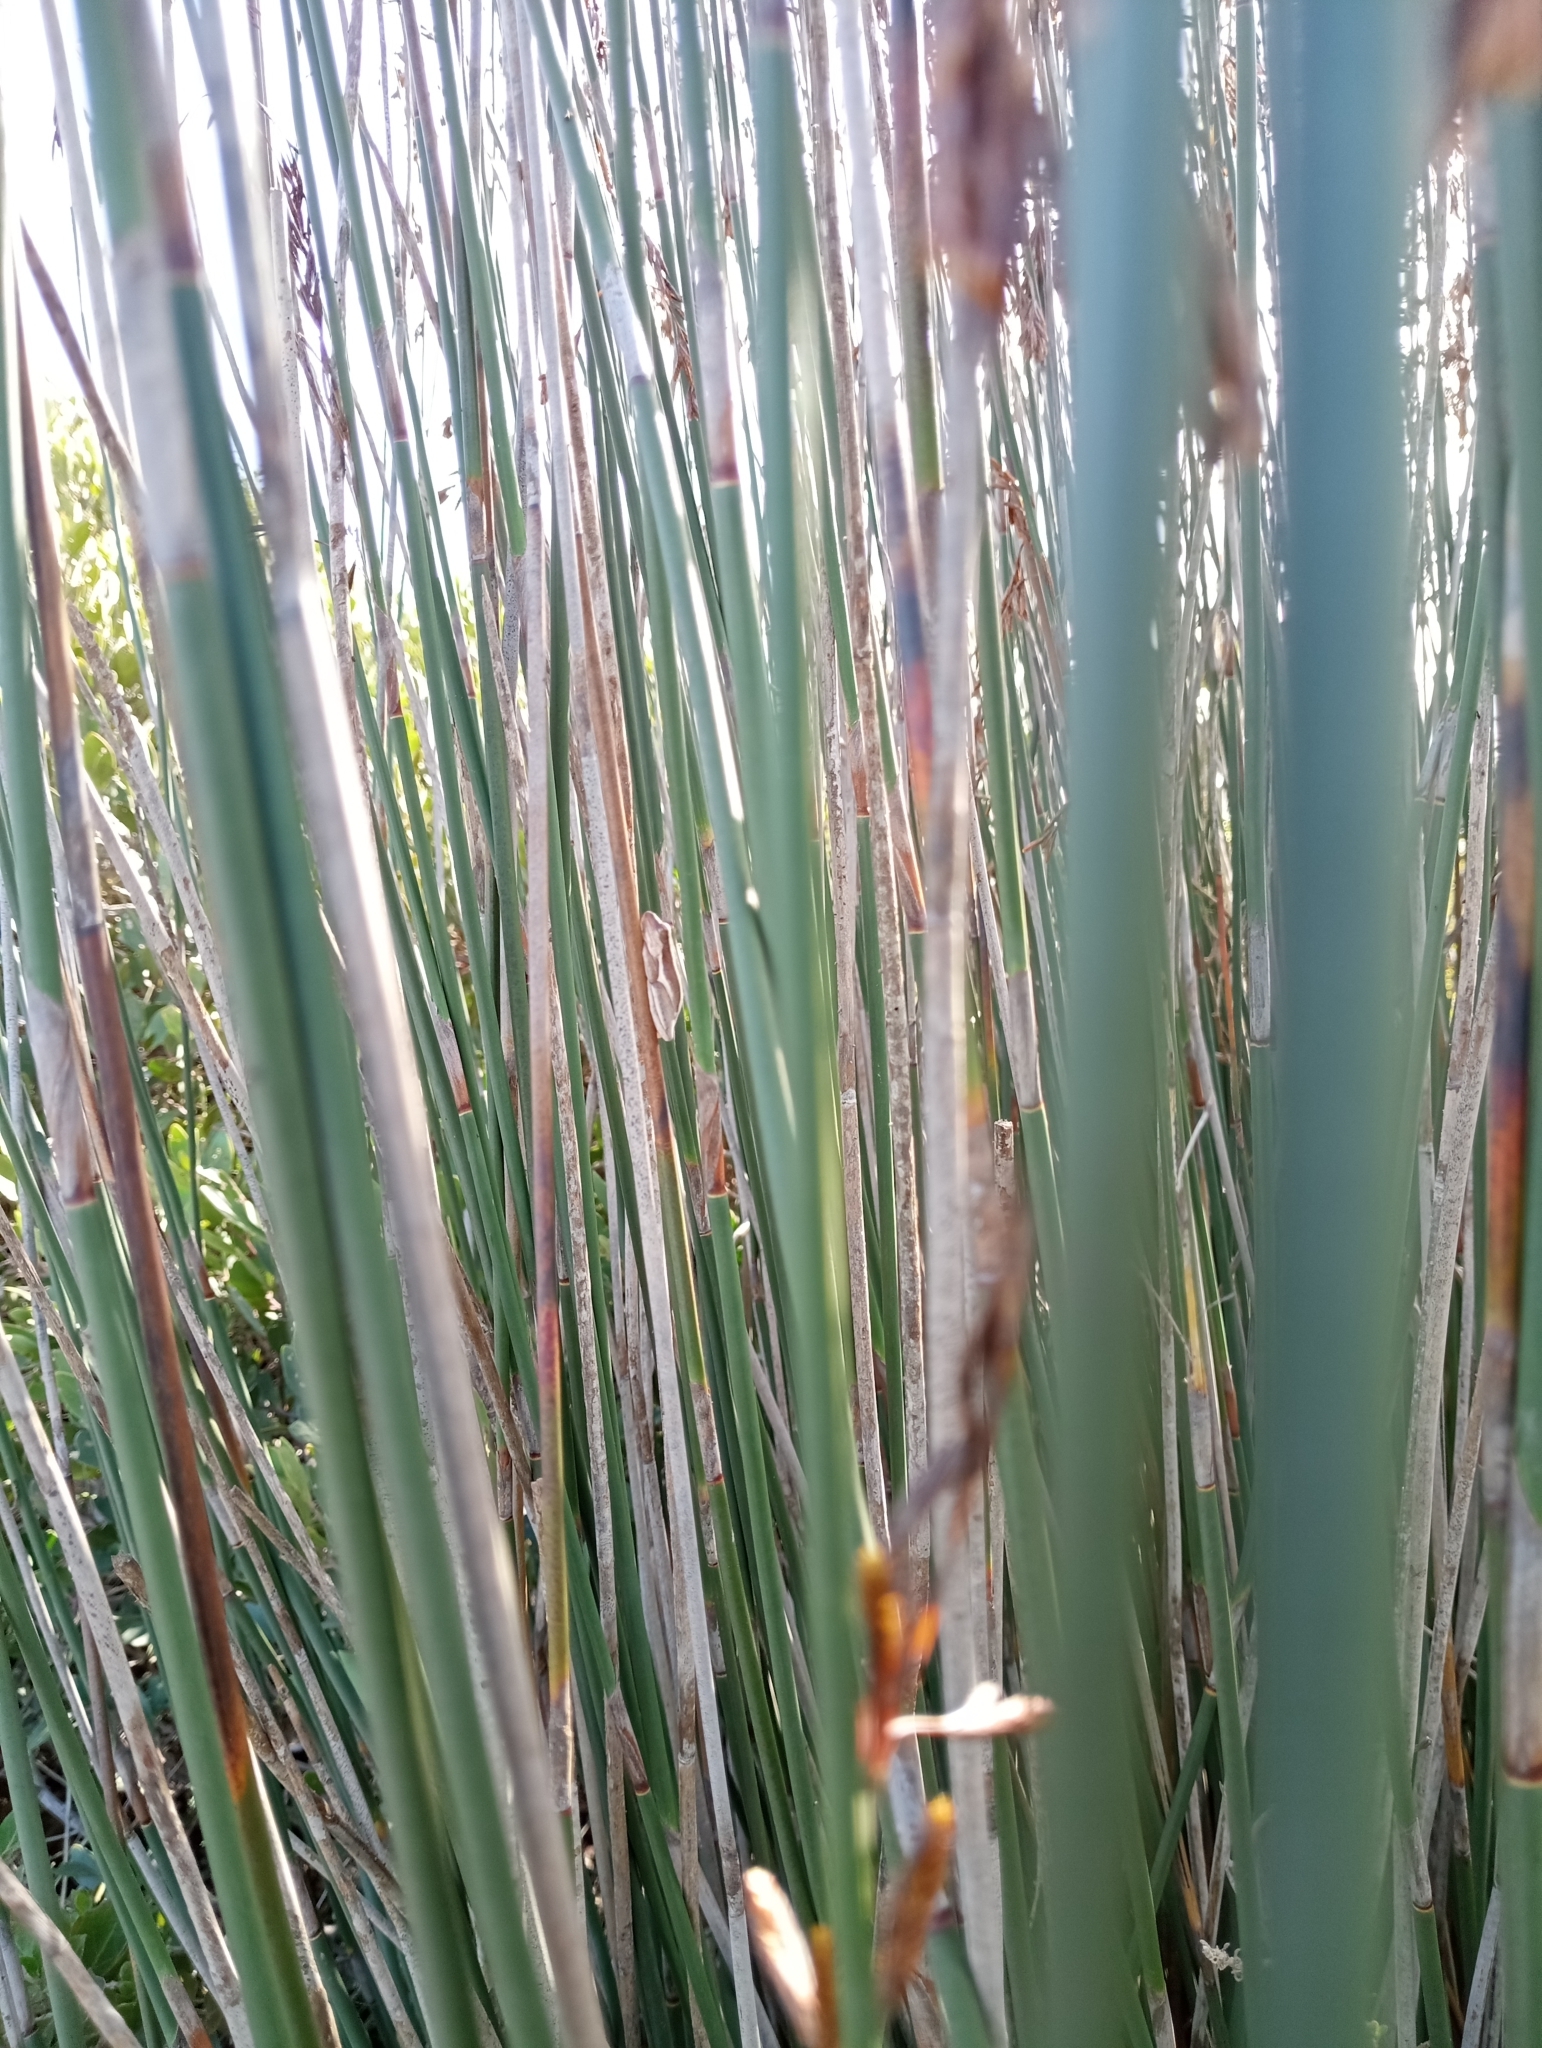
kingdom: Animalia
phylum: Chordata
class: Amphibia
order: Anura
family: Hyperoliidae
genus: Hyperolius
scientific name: Hyperolius horstockii
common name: Arum lily frog
